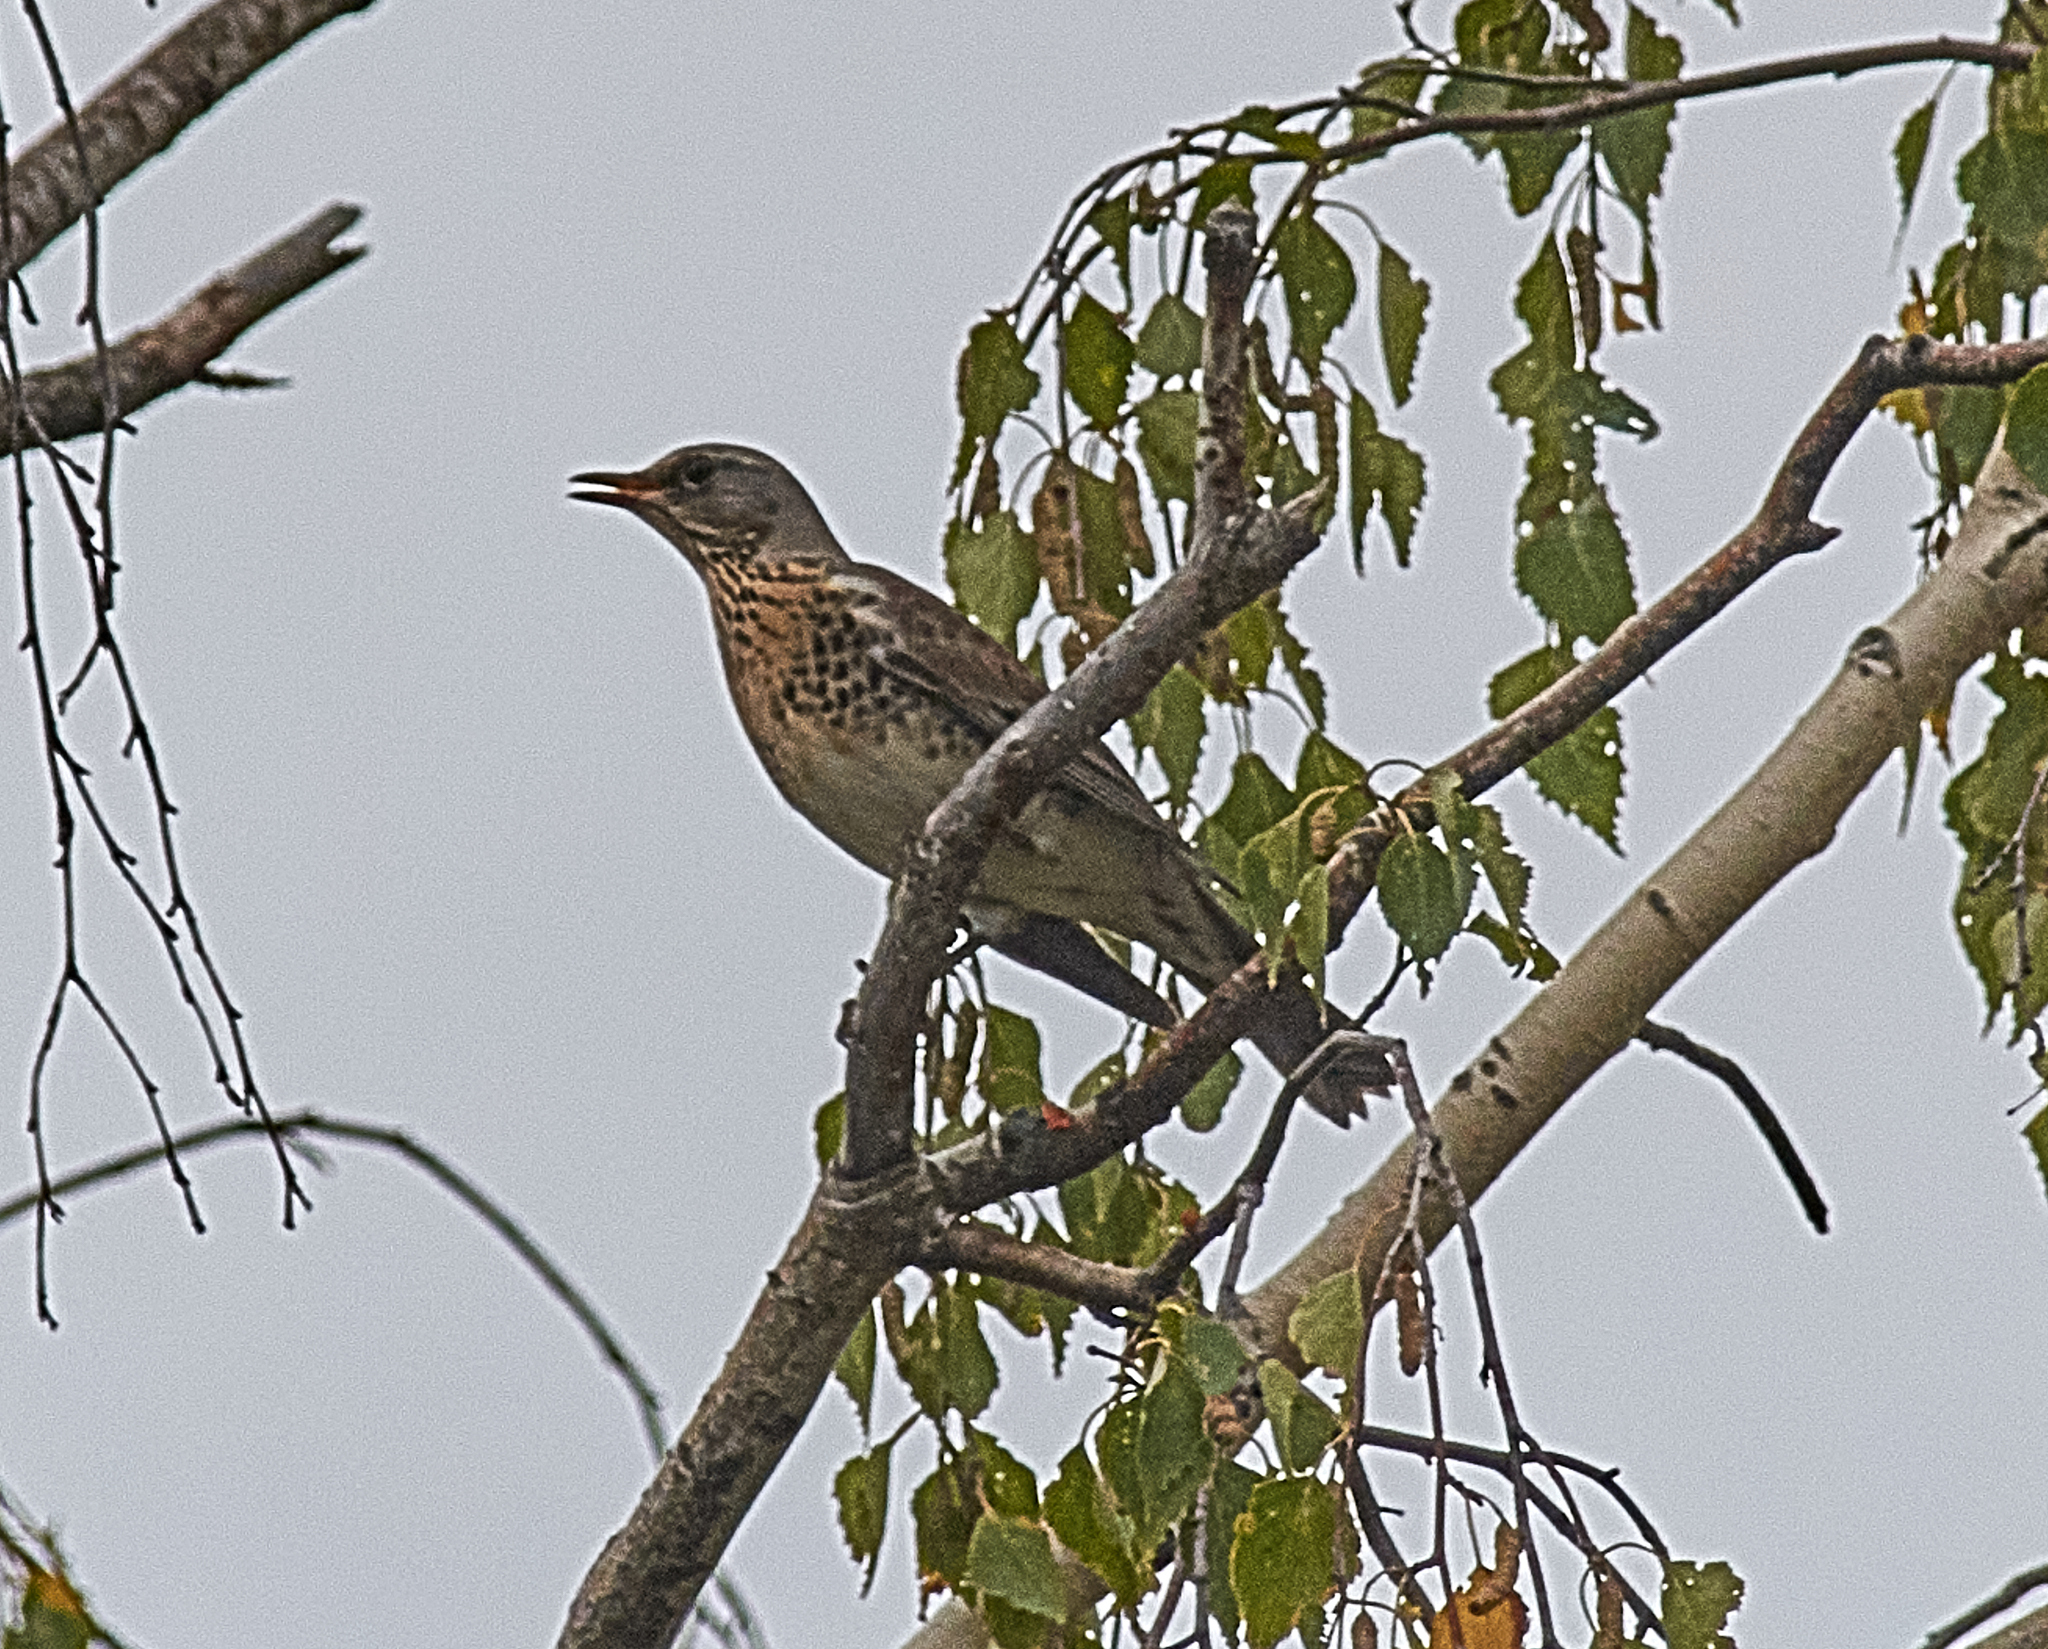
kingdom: Animalia
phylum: Chordata
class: Aves
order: Passeriformes
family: Turdidae
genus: Turdus
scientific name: Turdus pilaris
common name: Fieldfare
